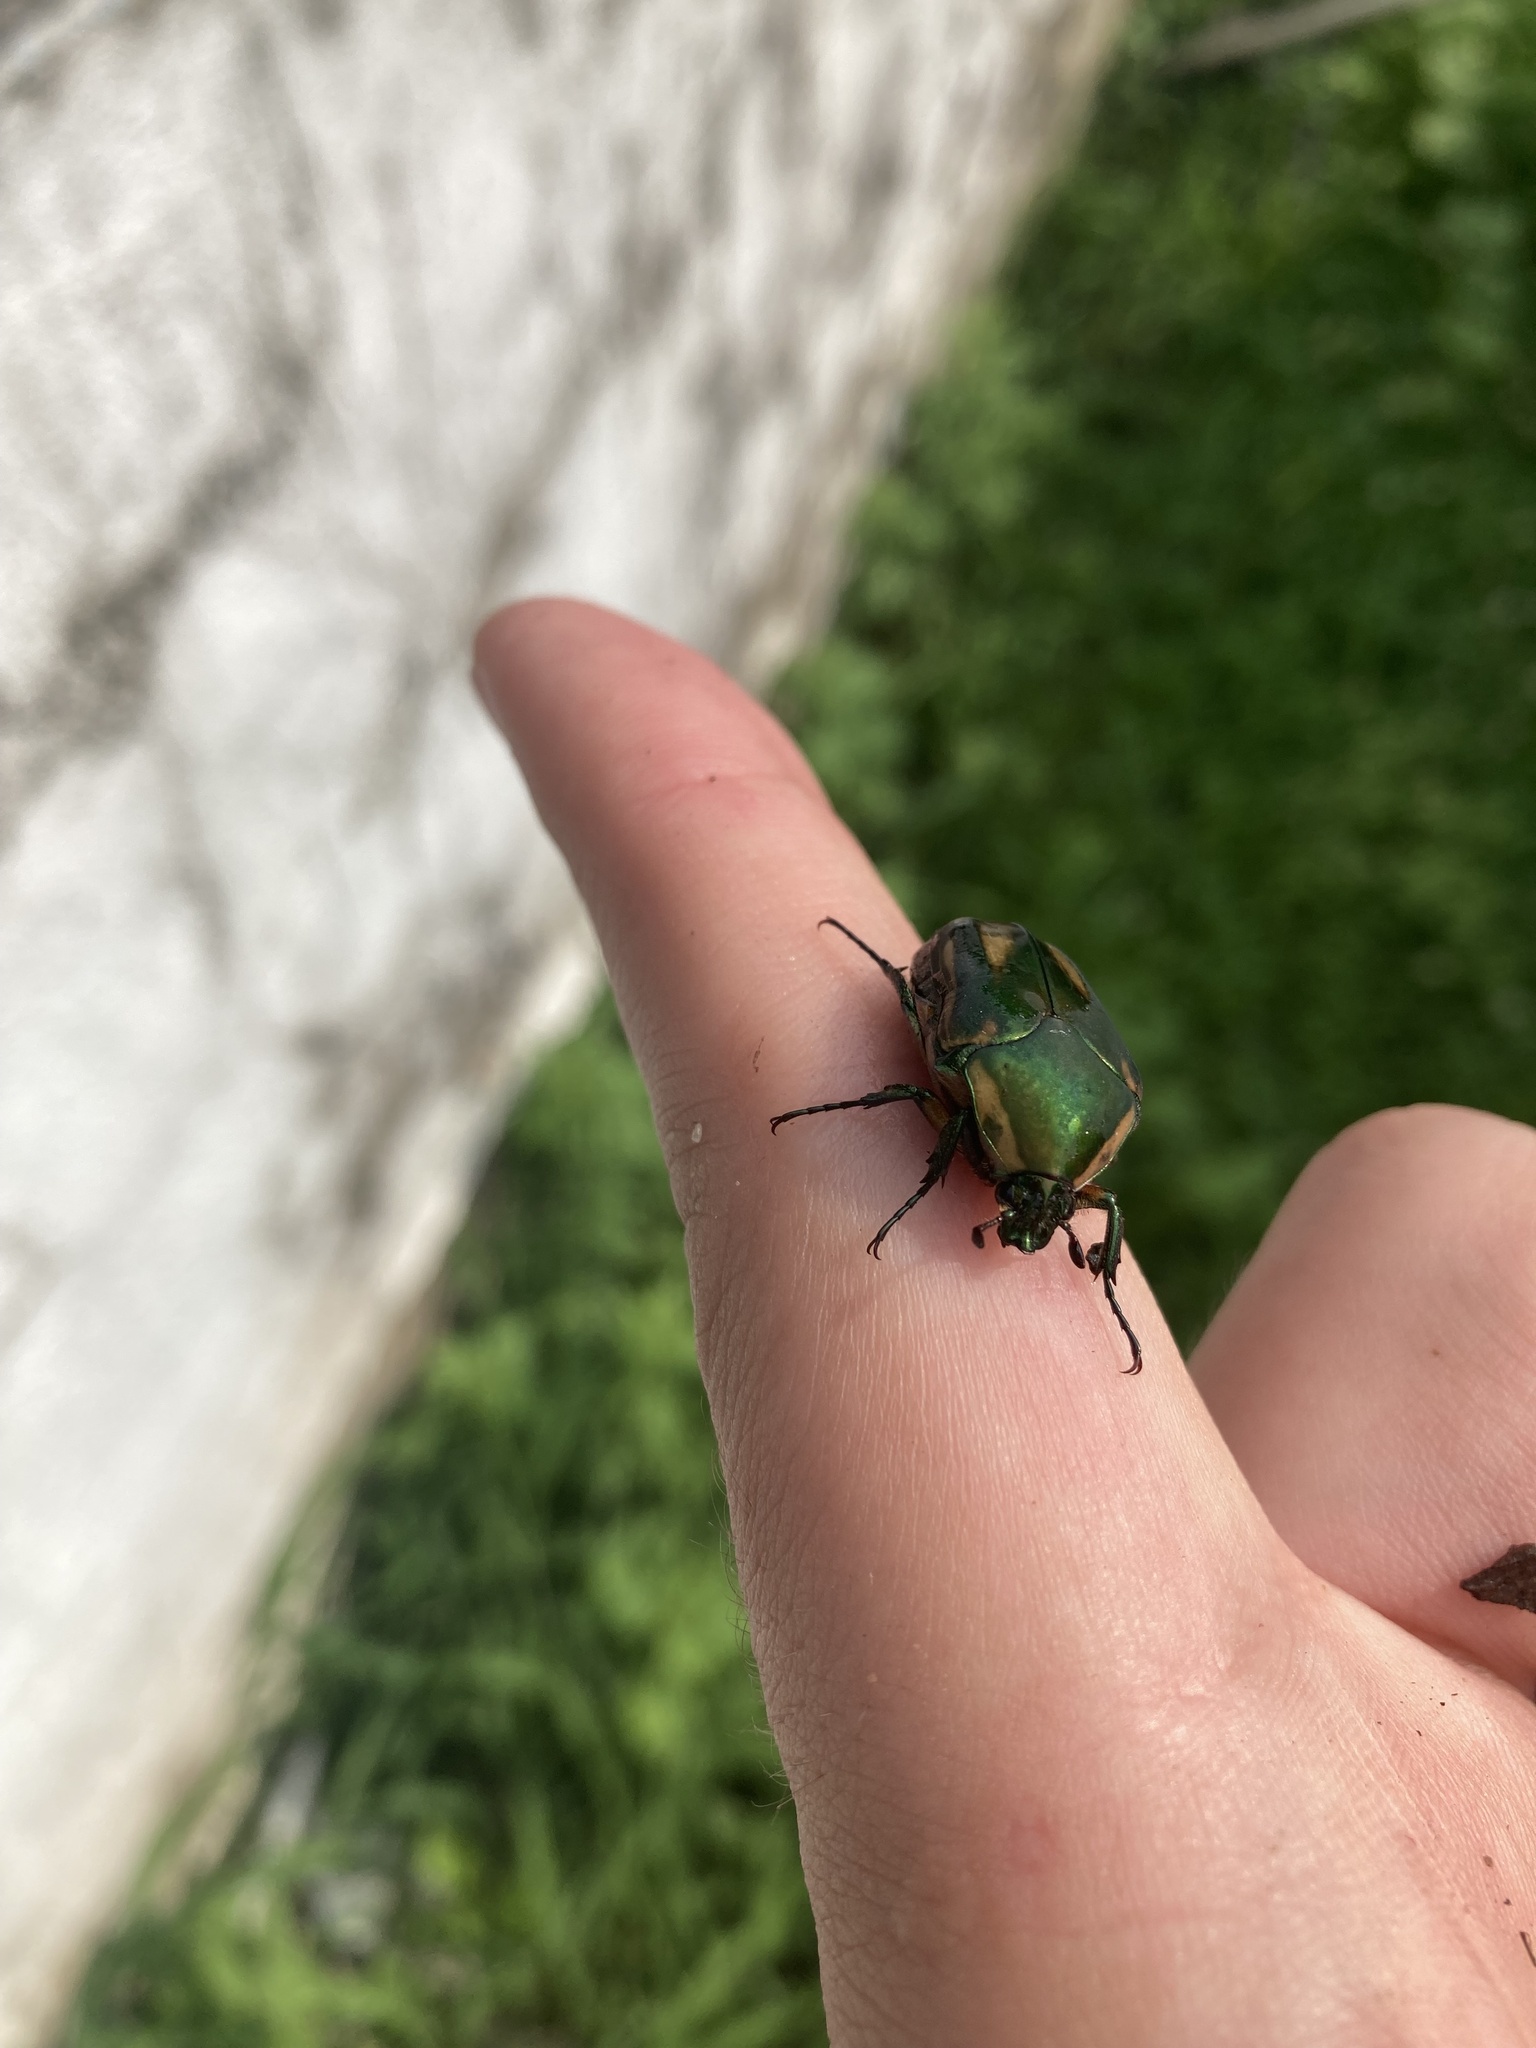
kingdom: Animalia
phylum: Arthropoda
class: Insecta
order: Coleoptera
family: Scarabaeidae
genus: Cotinis
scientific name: Cotinis nitida
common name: Common green june beetle
